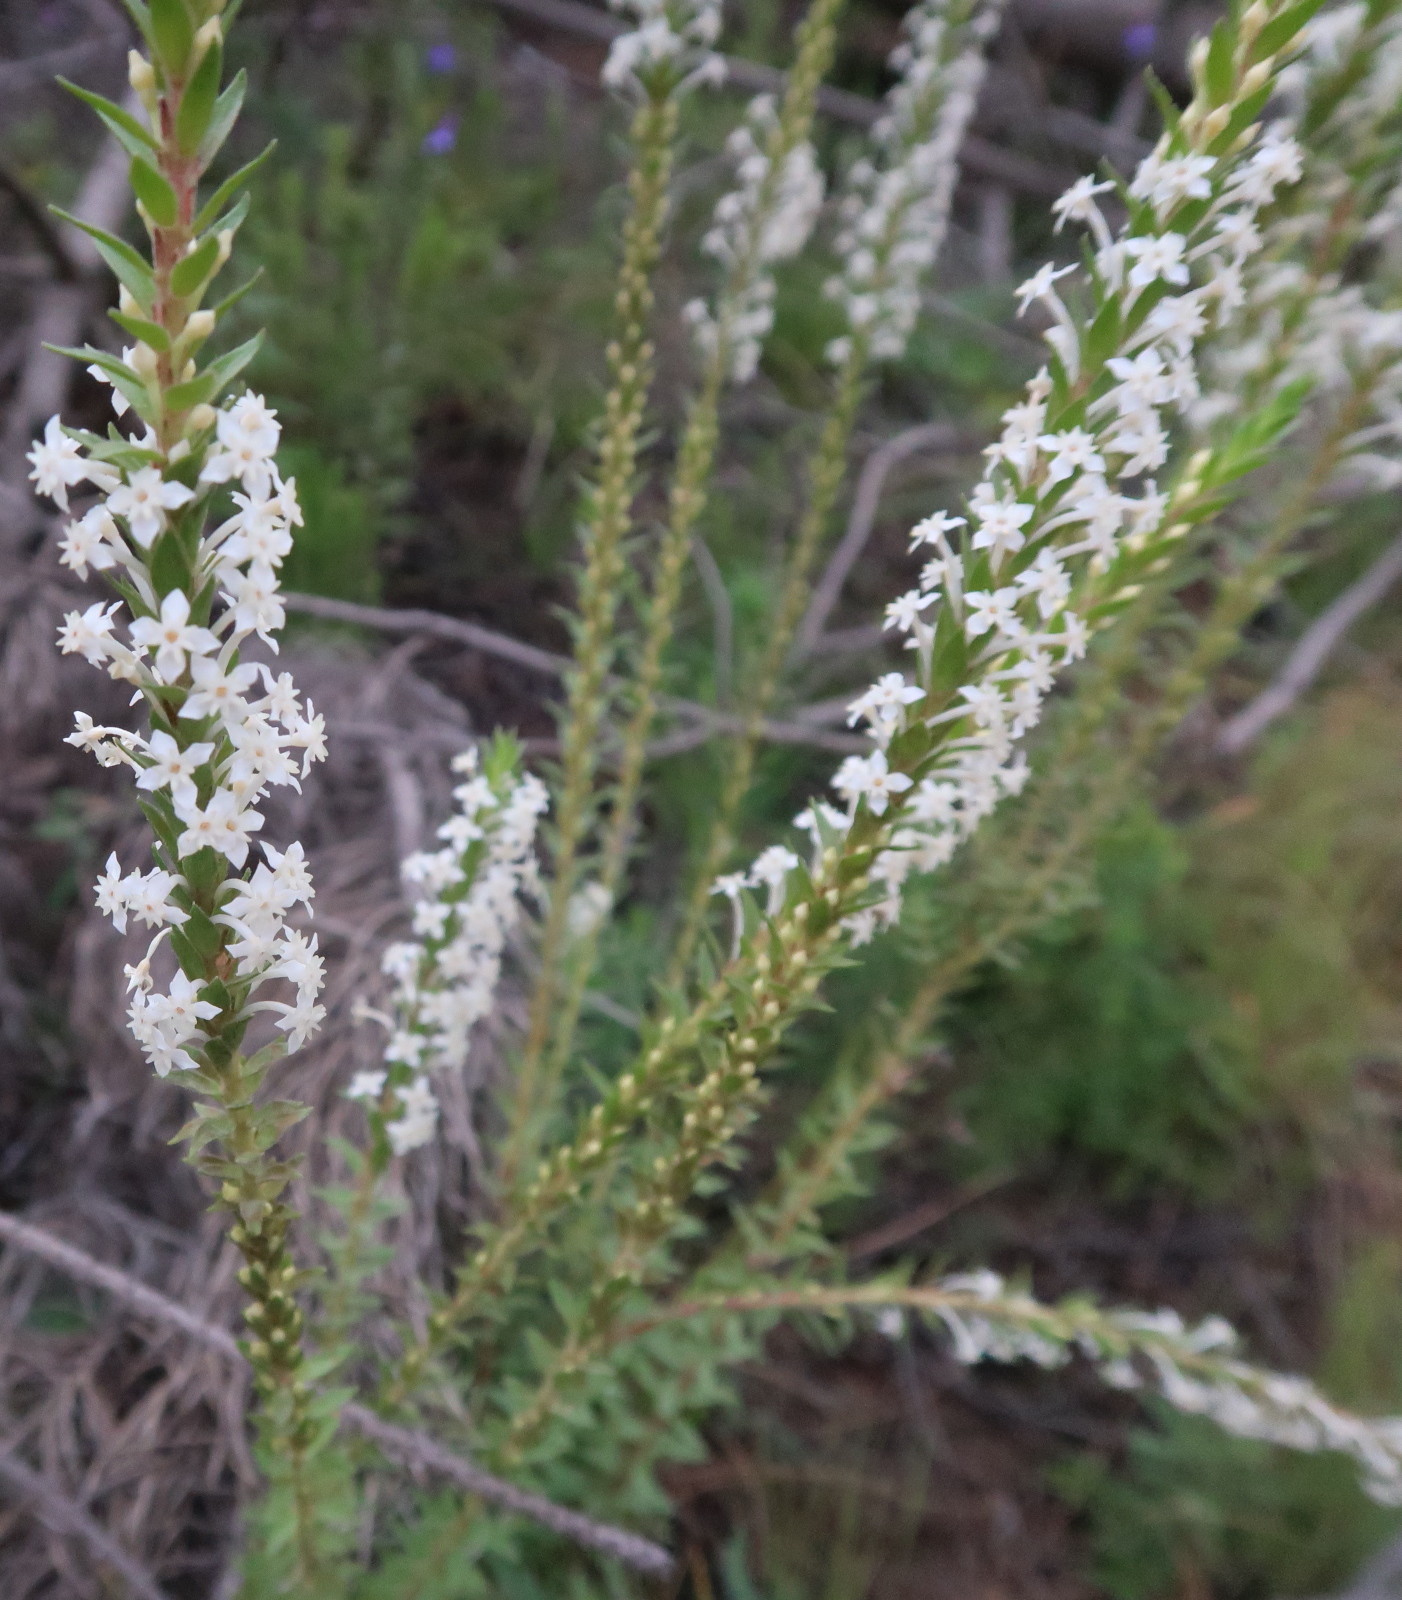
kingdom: Plantae
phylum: Tracheophyta
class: Magnoliopsida
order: Malvales
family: Thymelaeaceae
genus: Struthiola
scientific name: Struthiola hirsuta
